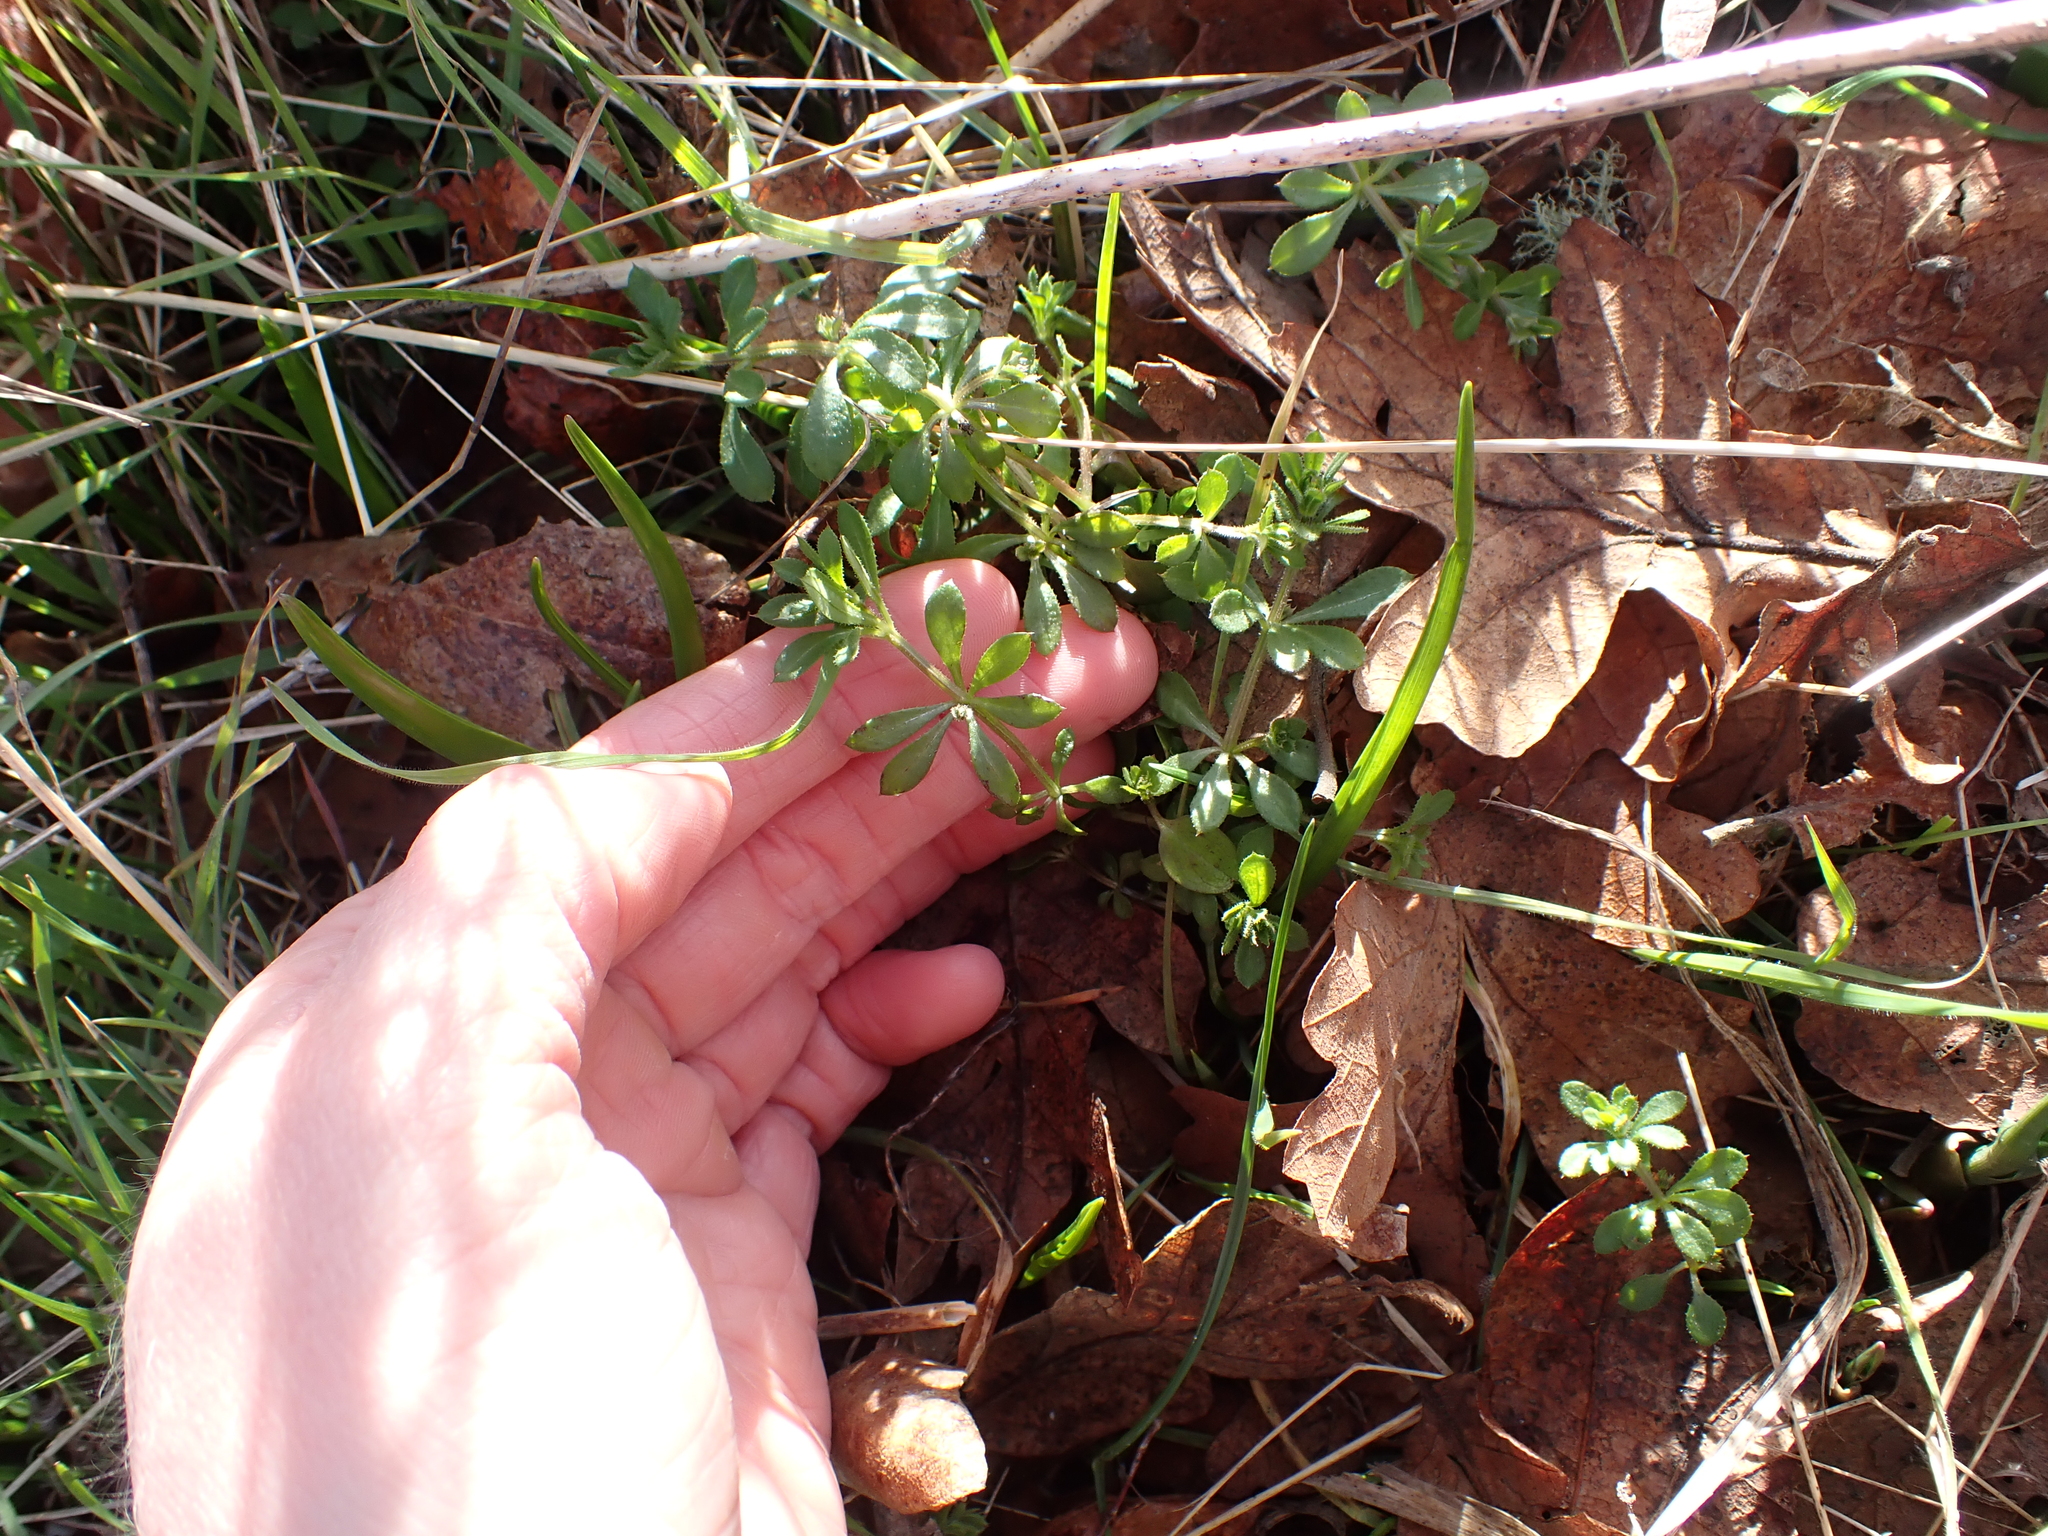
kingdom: Plantae
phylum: Tracheophyta
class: Magnoliopsida
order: Gentianales
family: Rubiaceae
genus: Galium
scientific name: Galium aparine
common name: Cleavers
